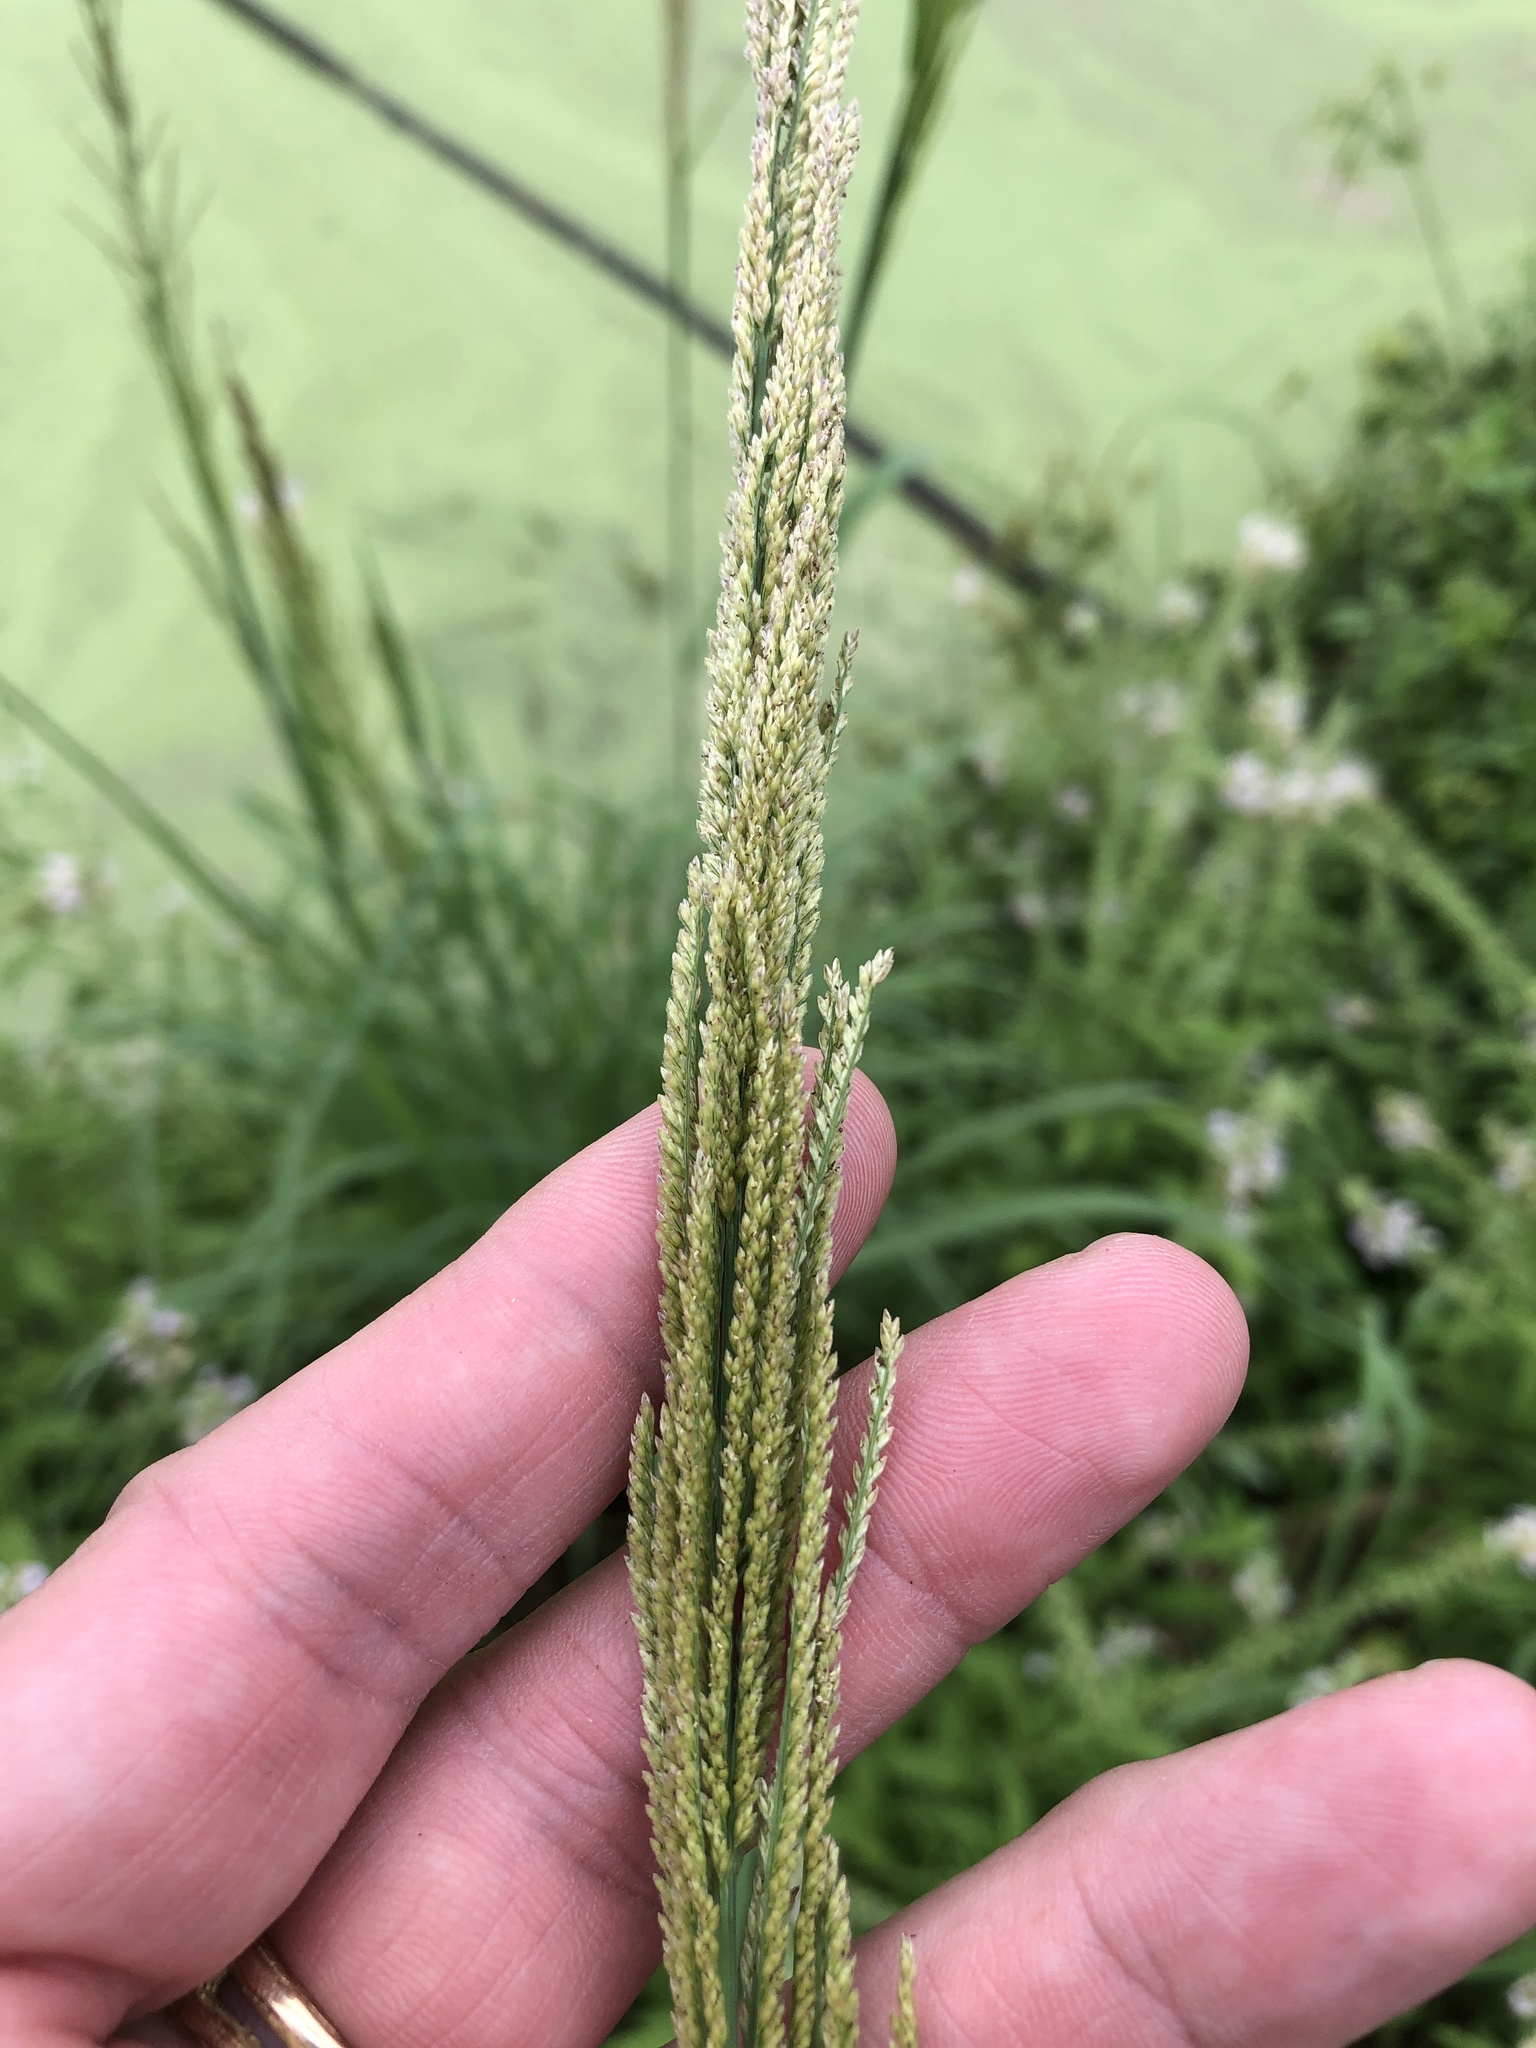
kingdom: Plantae
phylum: Tracheophyta
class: Liliopsida
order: Poales
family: Poaceae
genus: Leptochloa
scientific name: Leptochloa nealleyi
